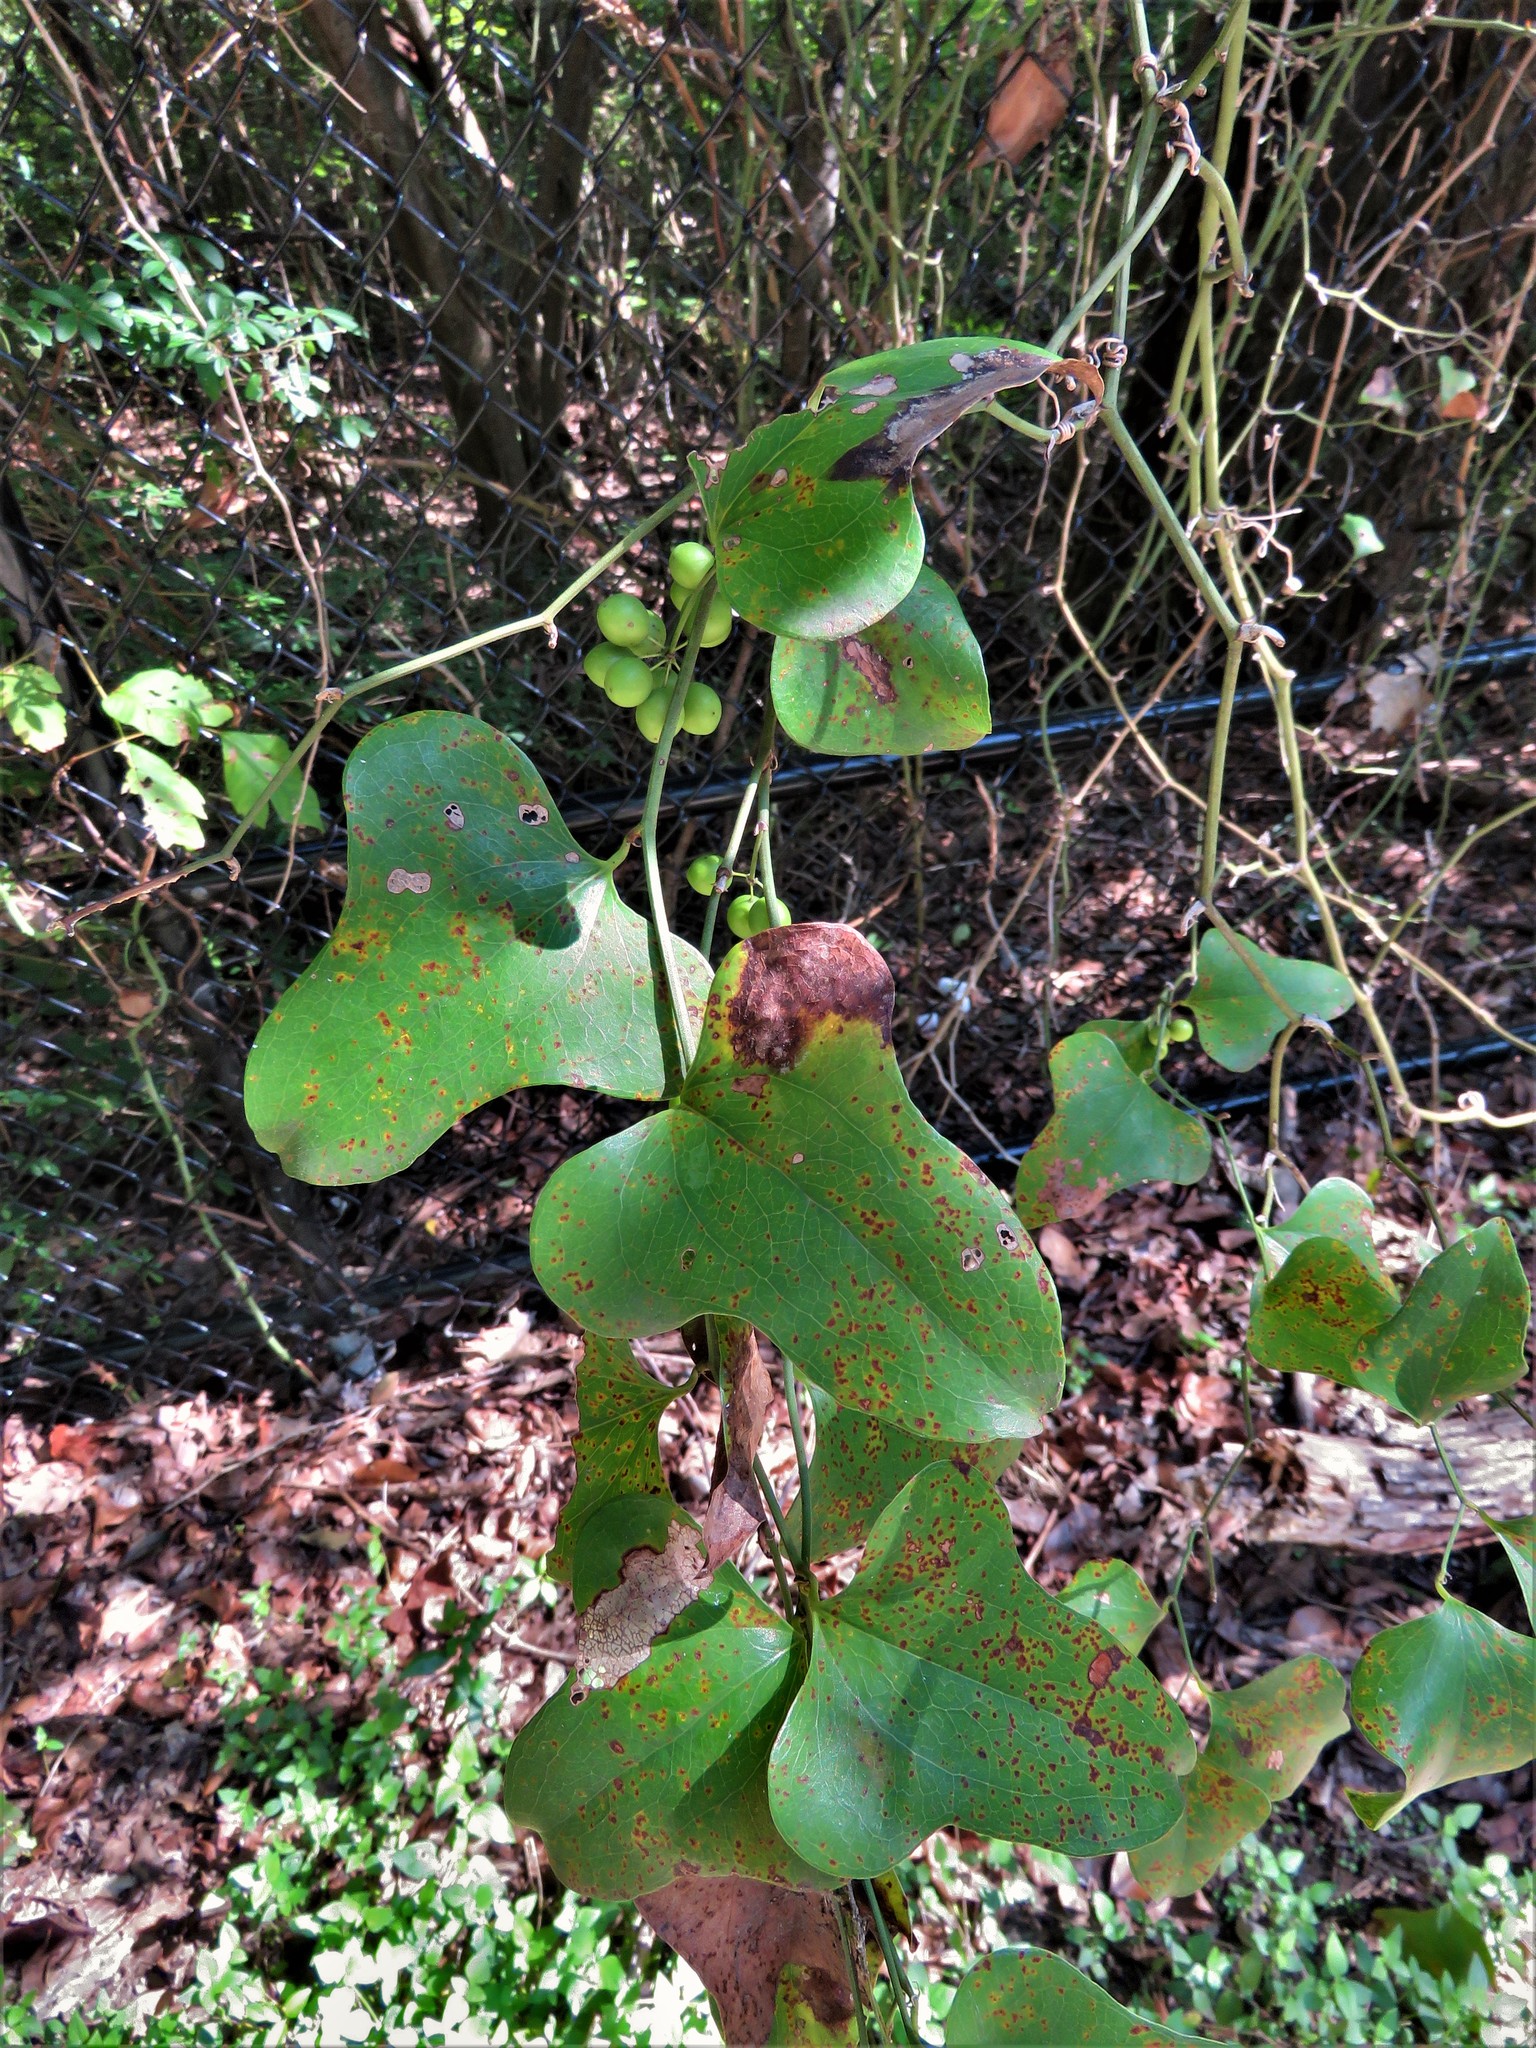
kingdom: Plantae
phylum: Tracheophyta
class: Liliopsida
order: Liliales
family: Smilacaceae
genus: Smilax
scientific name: Smilax bona-nox
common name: Catbrier
